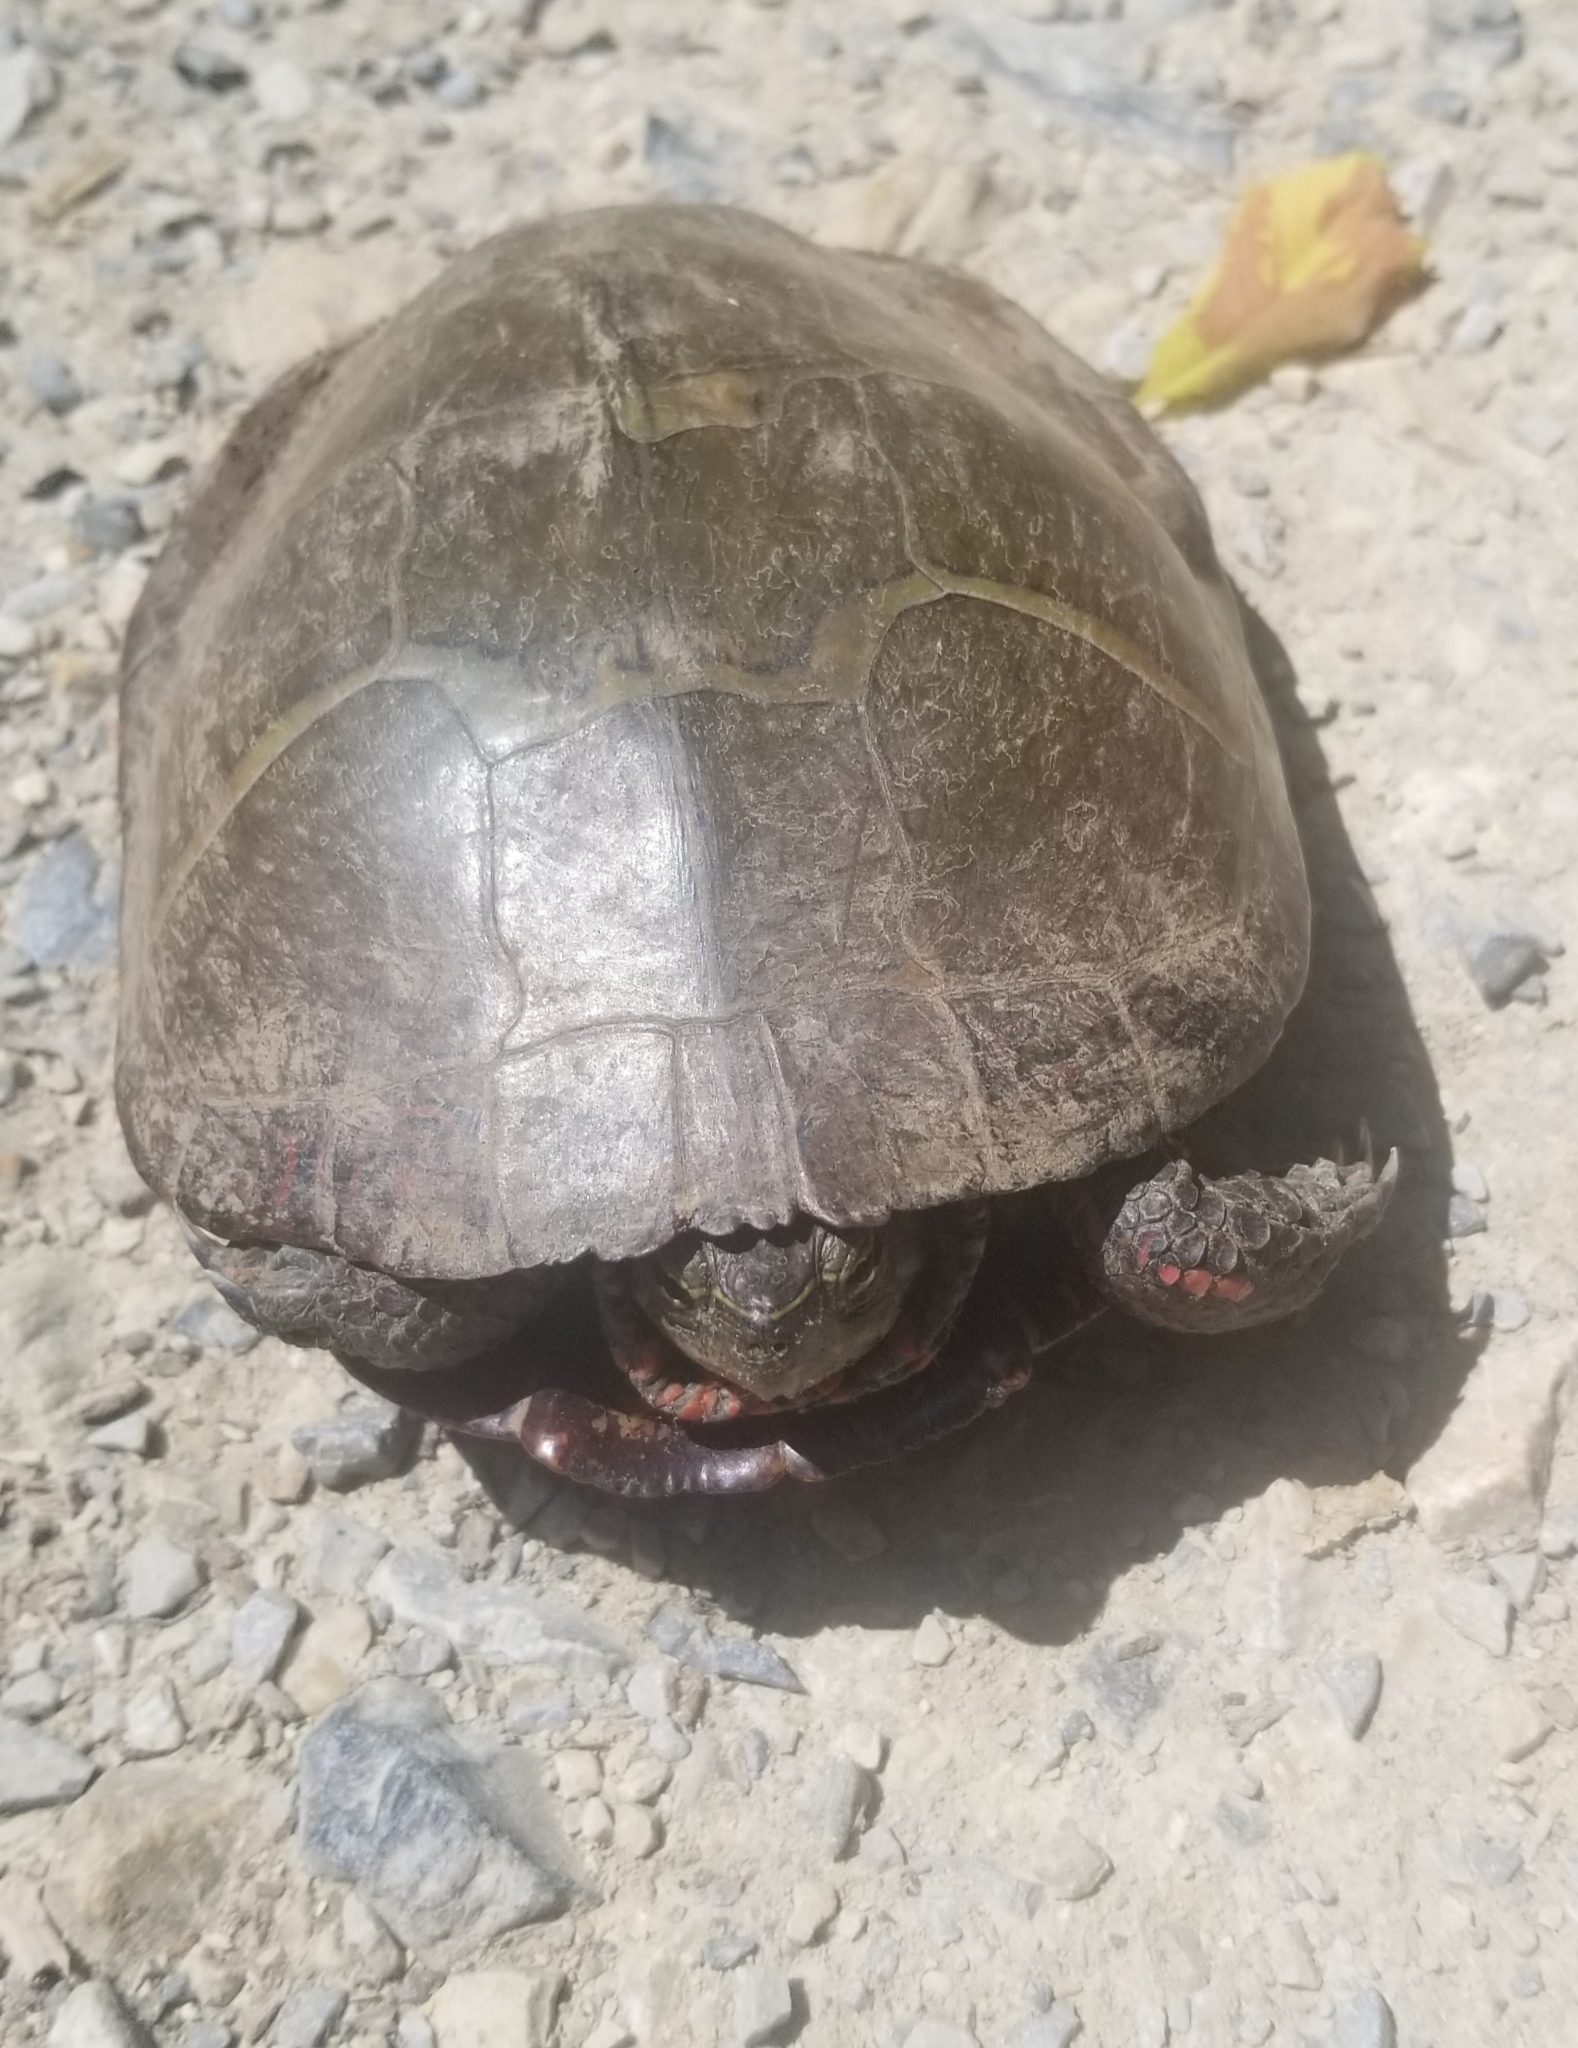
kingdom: Animalia
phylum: Chordata
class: Testudines
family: Emydidae
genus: Chrysemys
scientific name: Chrysemys picta
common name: Painted turtle
